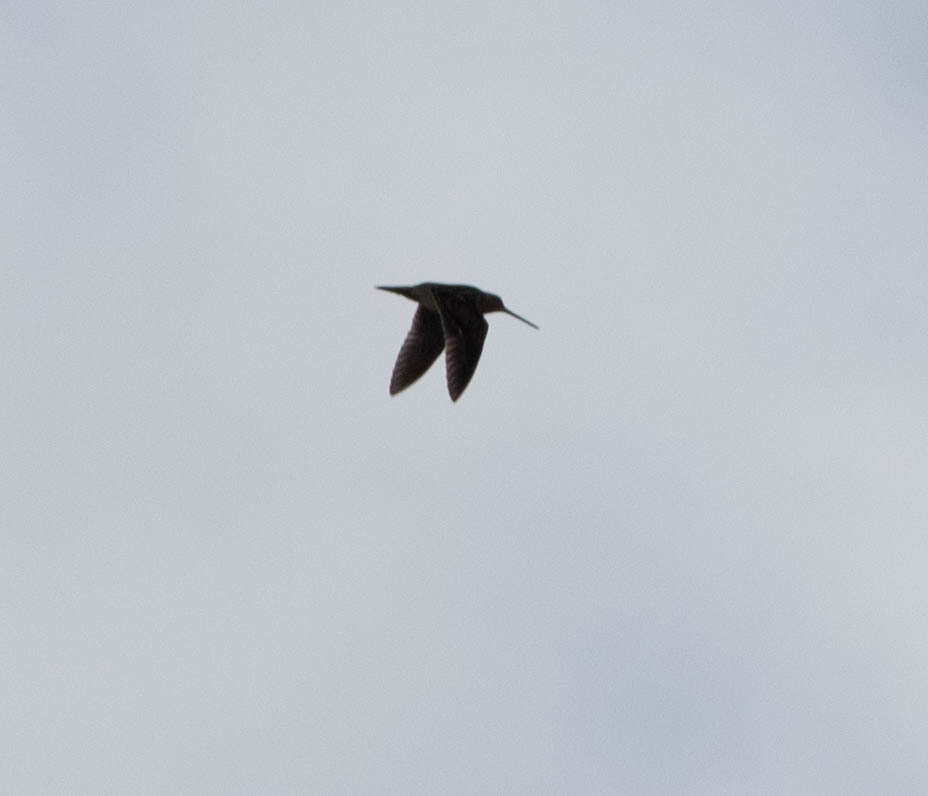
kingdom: Animalia
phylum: Chordata
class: Aves
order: Charadriiformes
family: Scolopacidae
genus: Gallinago
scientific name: Gallinago delicata
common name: Wilson's snipe
